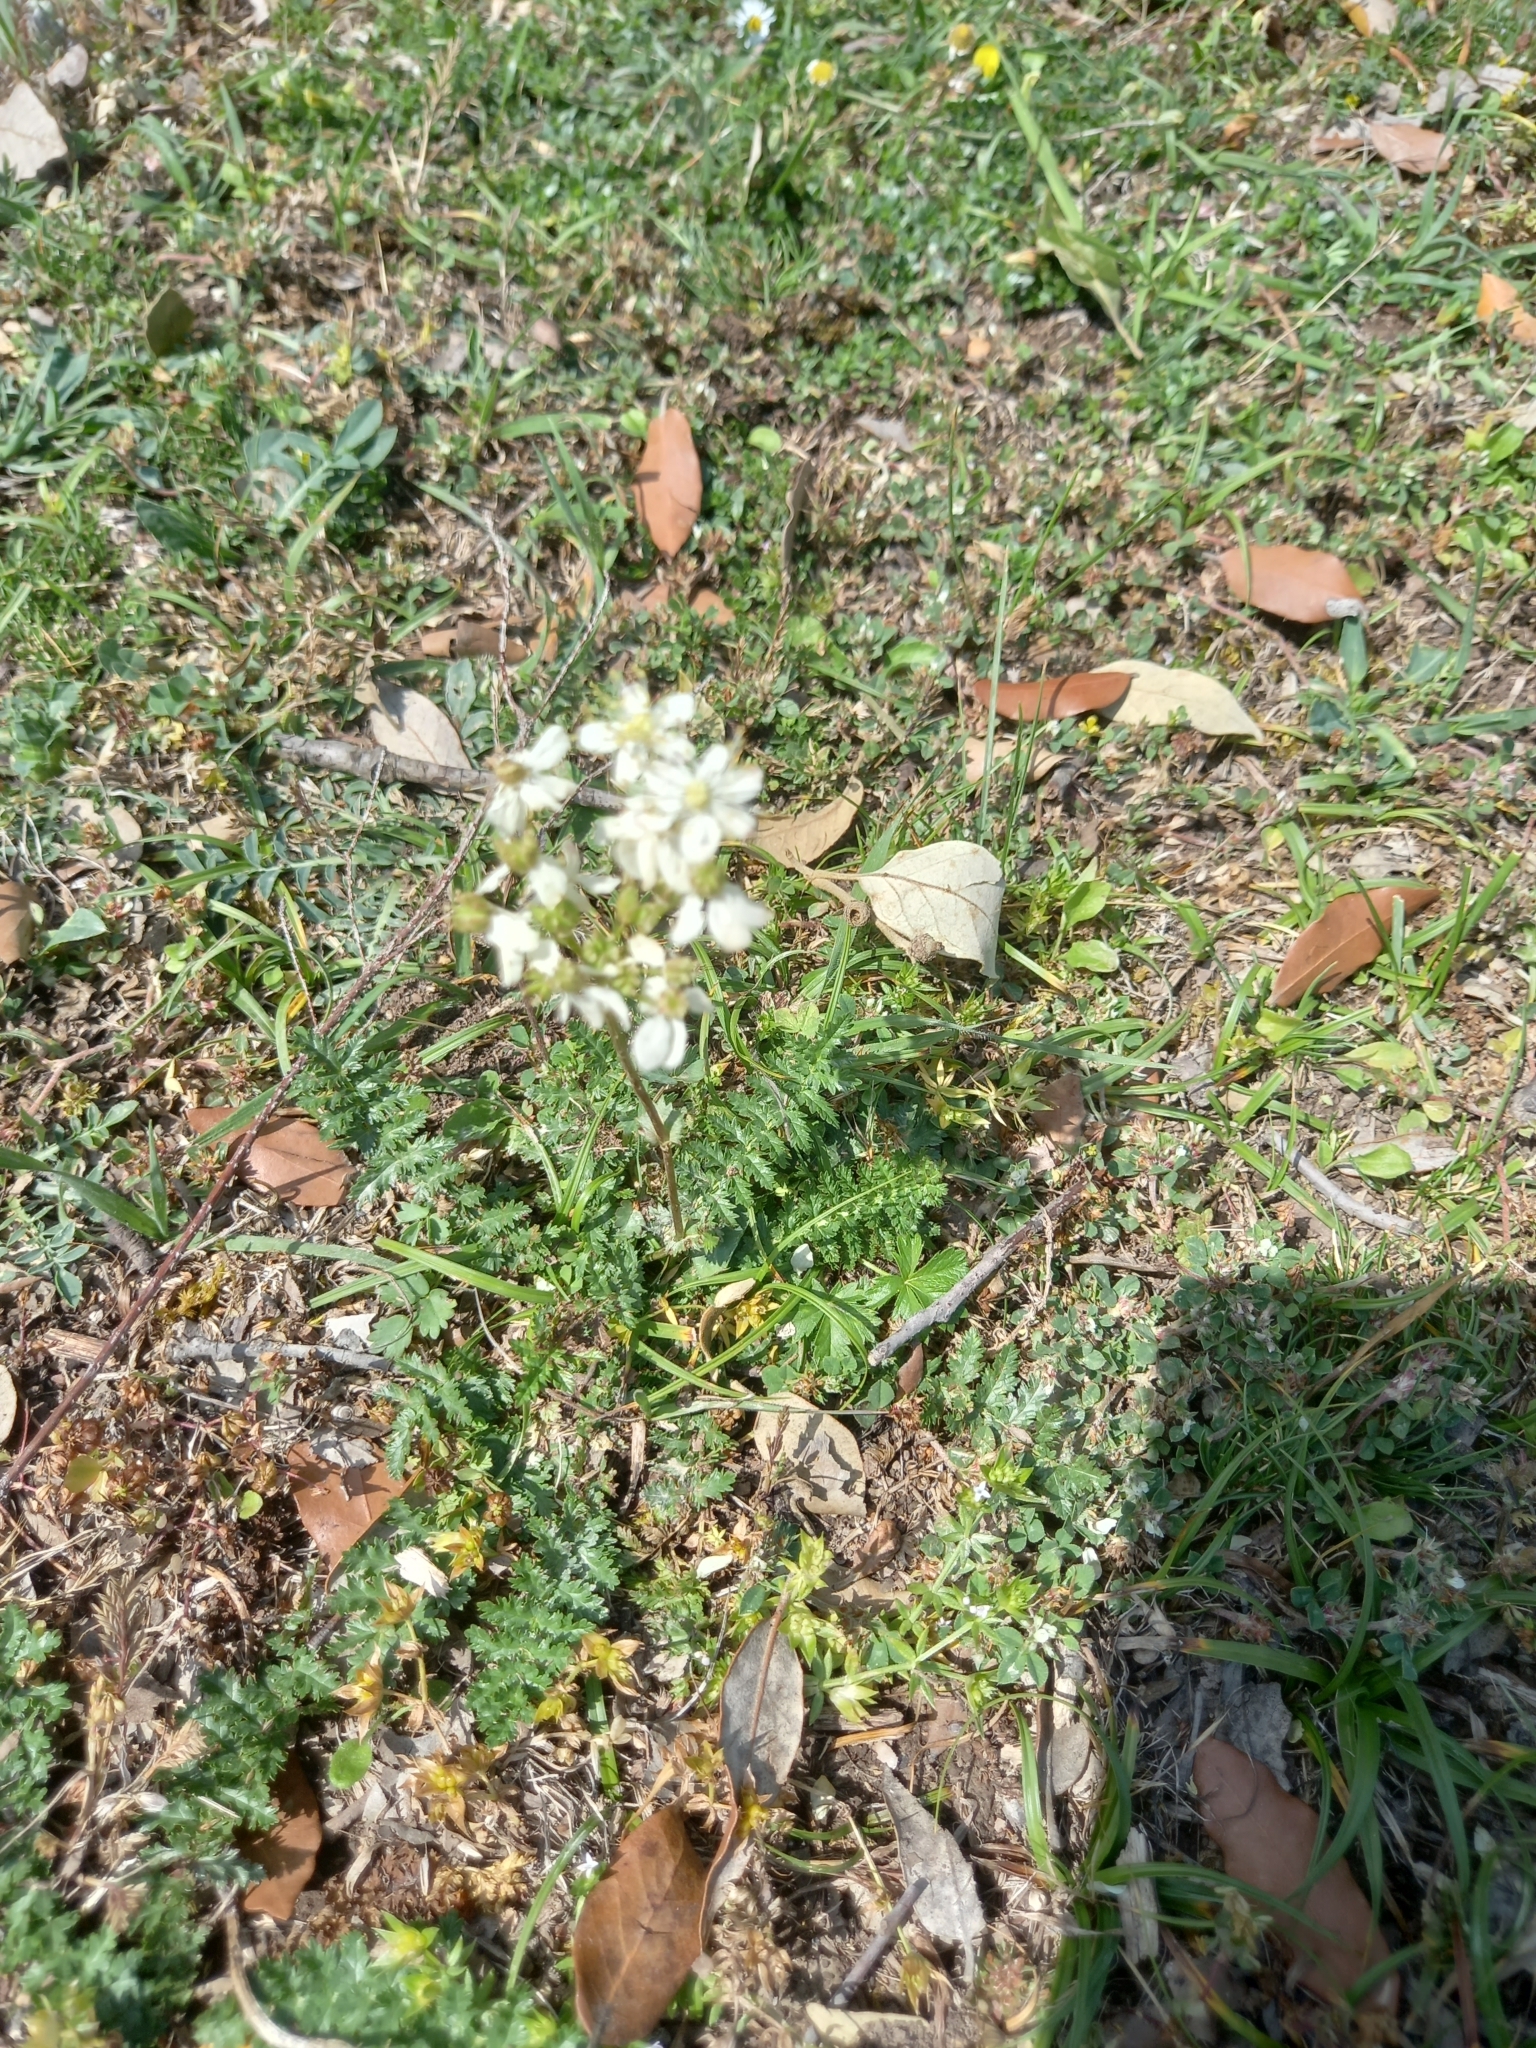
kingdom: Plantae
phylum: Tracheophyta
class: Magnoliopsida
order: Rosales
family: Rosaceae
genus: Filipendula
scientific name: Filipendula vulgaris
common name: Dropwort
